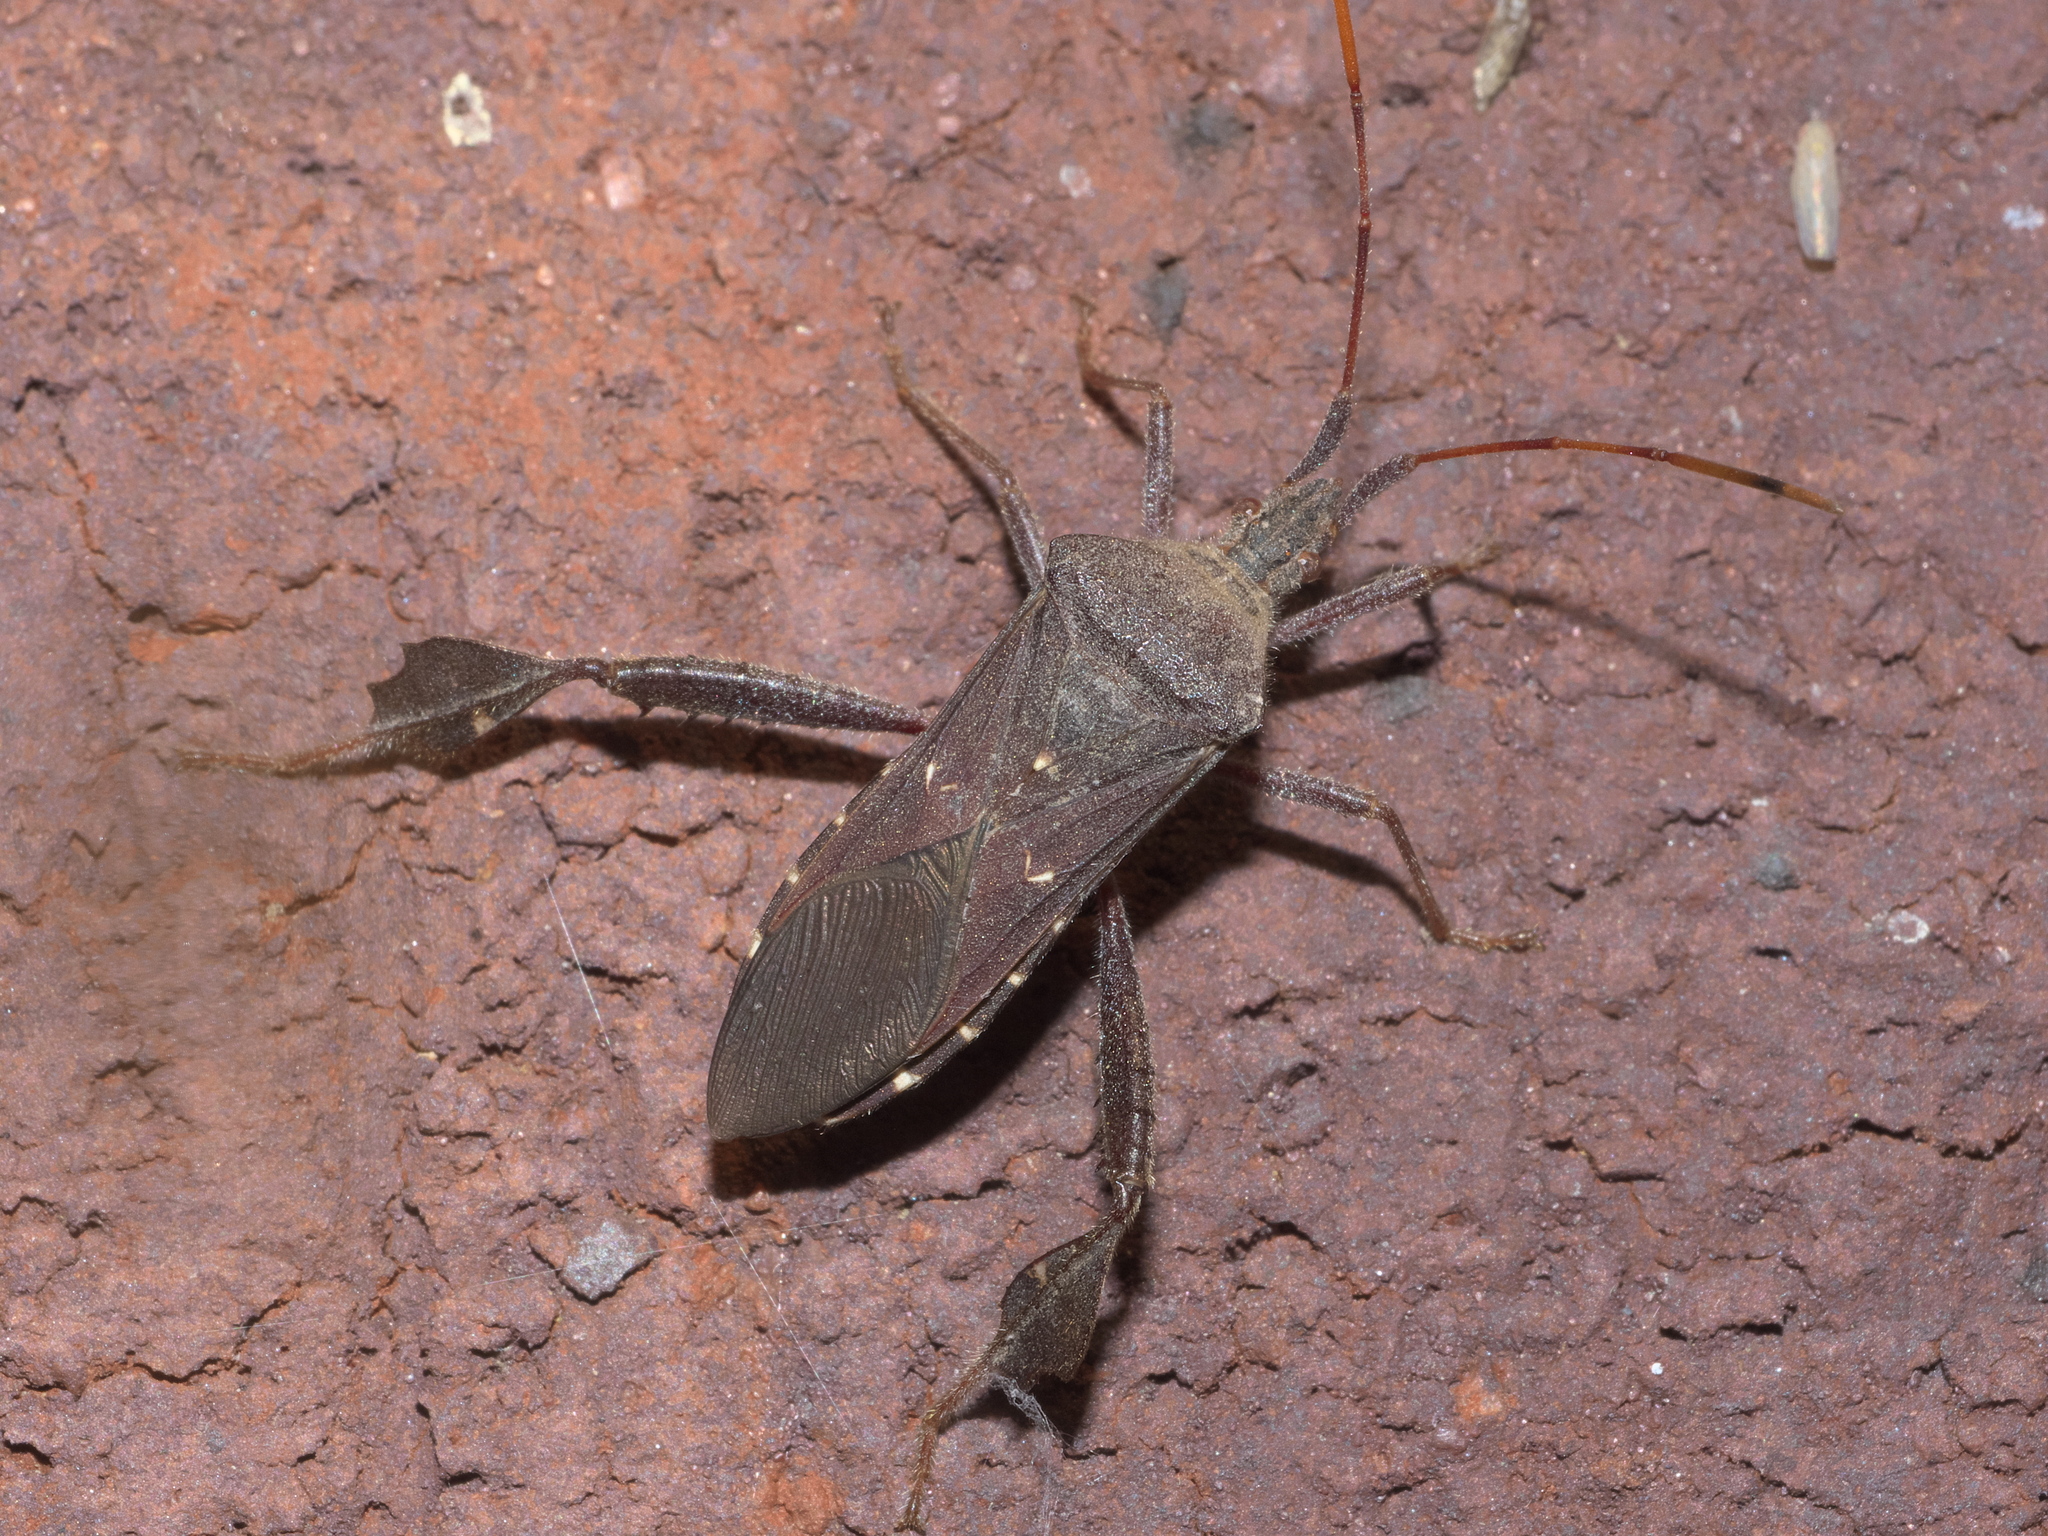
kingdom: Animalia
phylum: Arthropoda
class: Insecta
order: Hemiptera
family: Coreidae
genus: Leptoglossus
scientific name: Leptoglossus oppositus
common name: Northern leaf-footed bug
